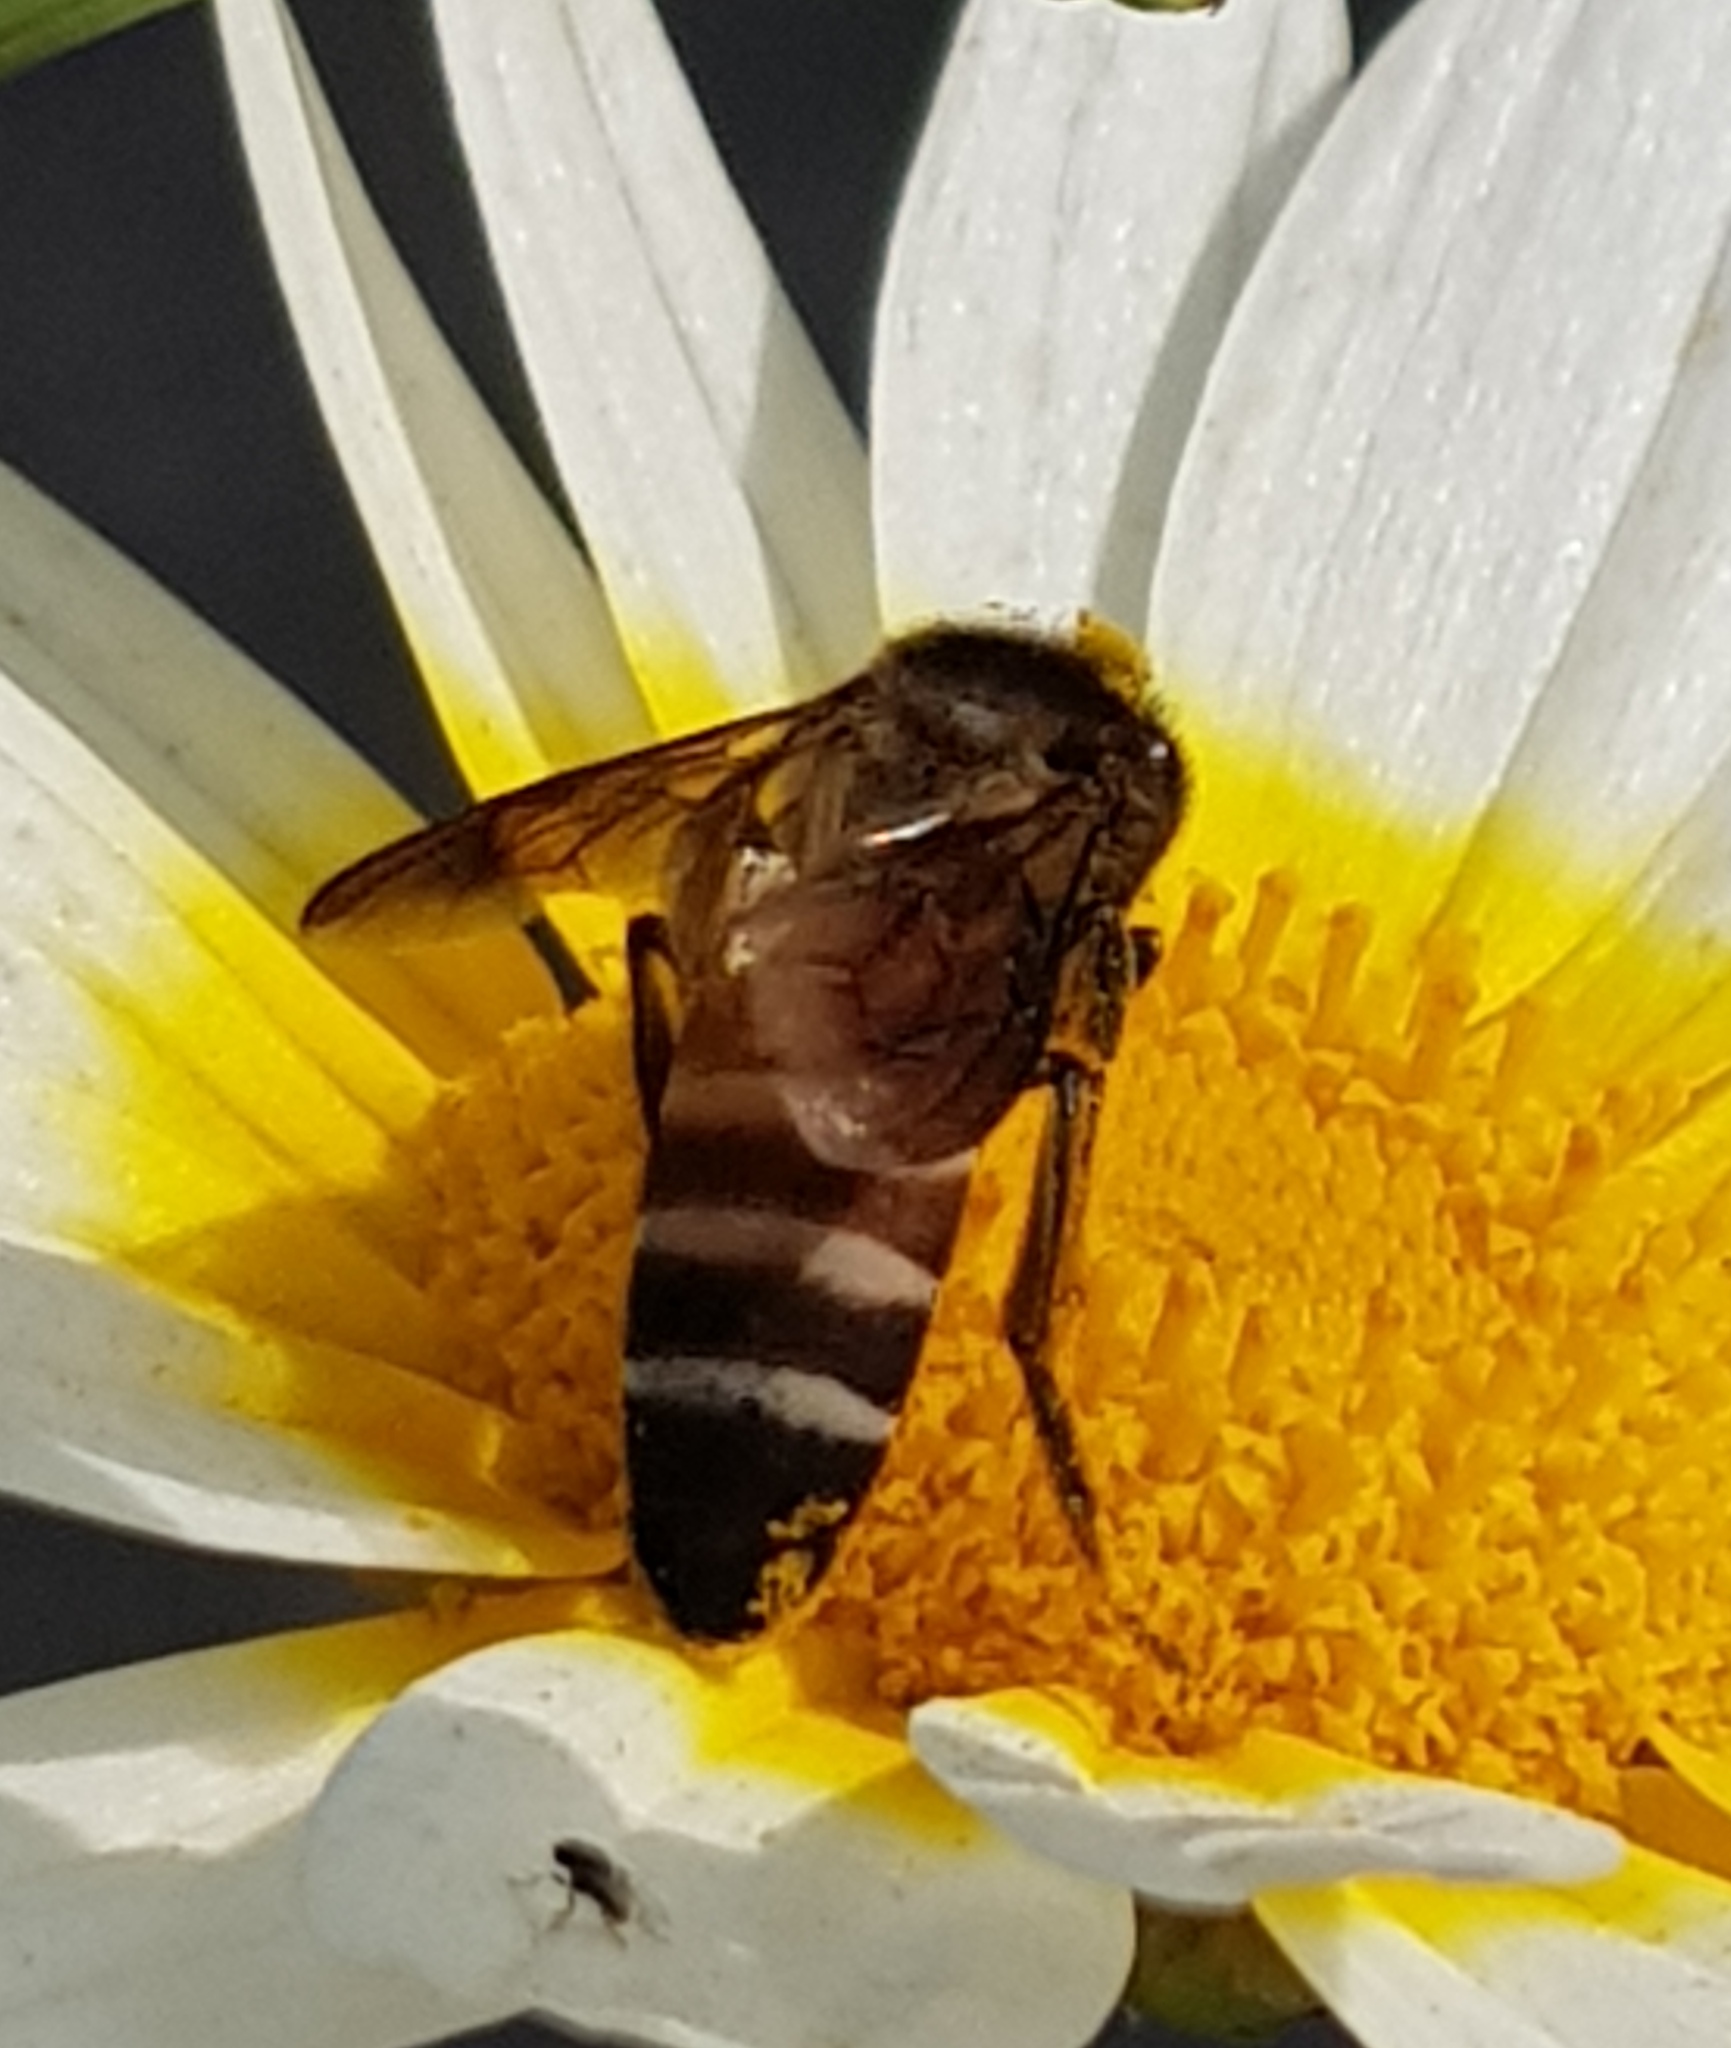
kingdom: Animalia
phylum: Arthropoda
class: Insecta
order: Hymenoptera
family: Apidae
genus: Apis
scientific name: Apis dorsata
